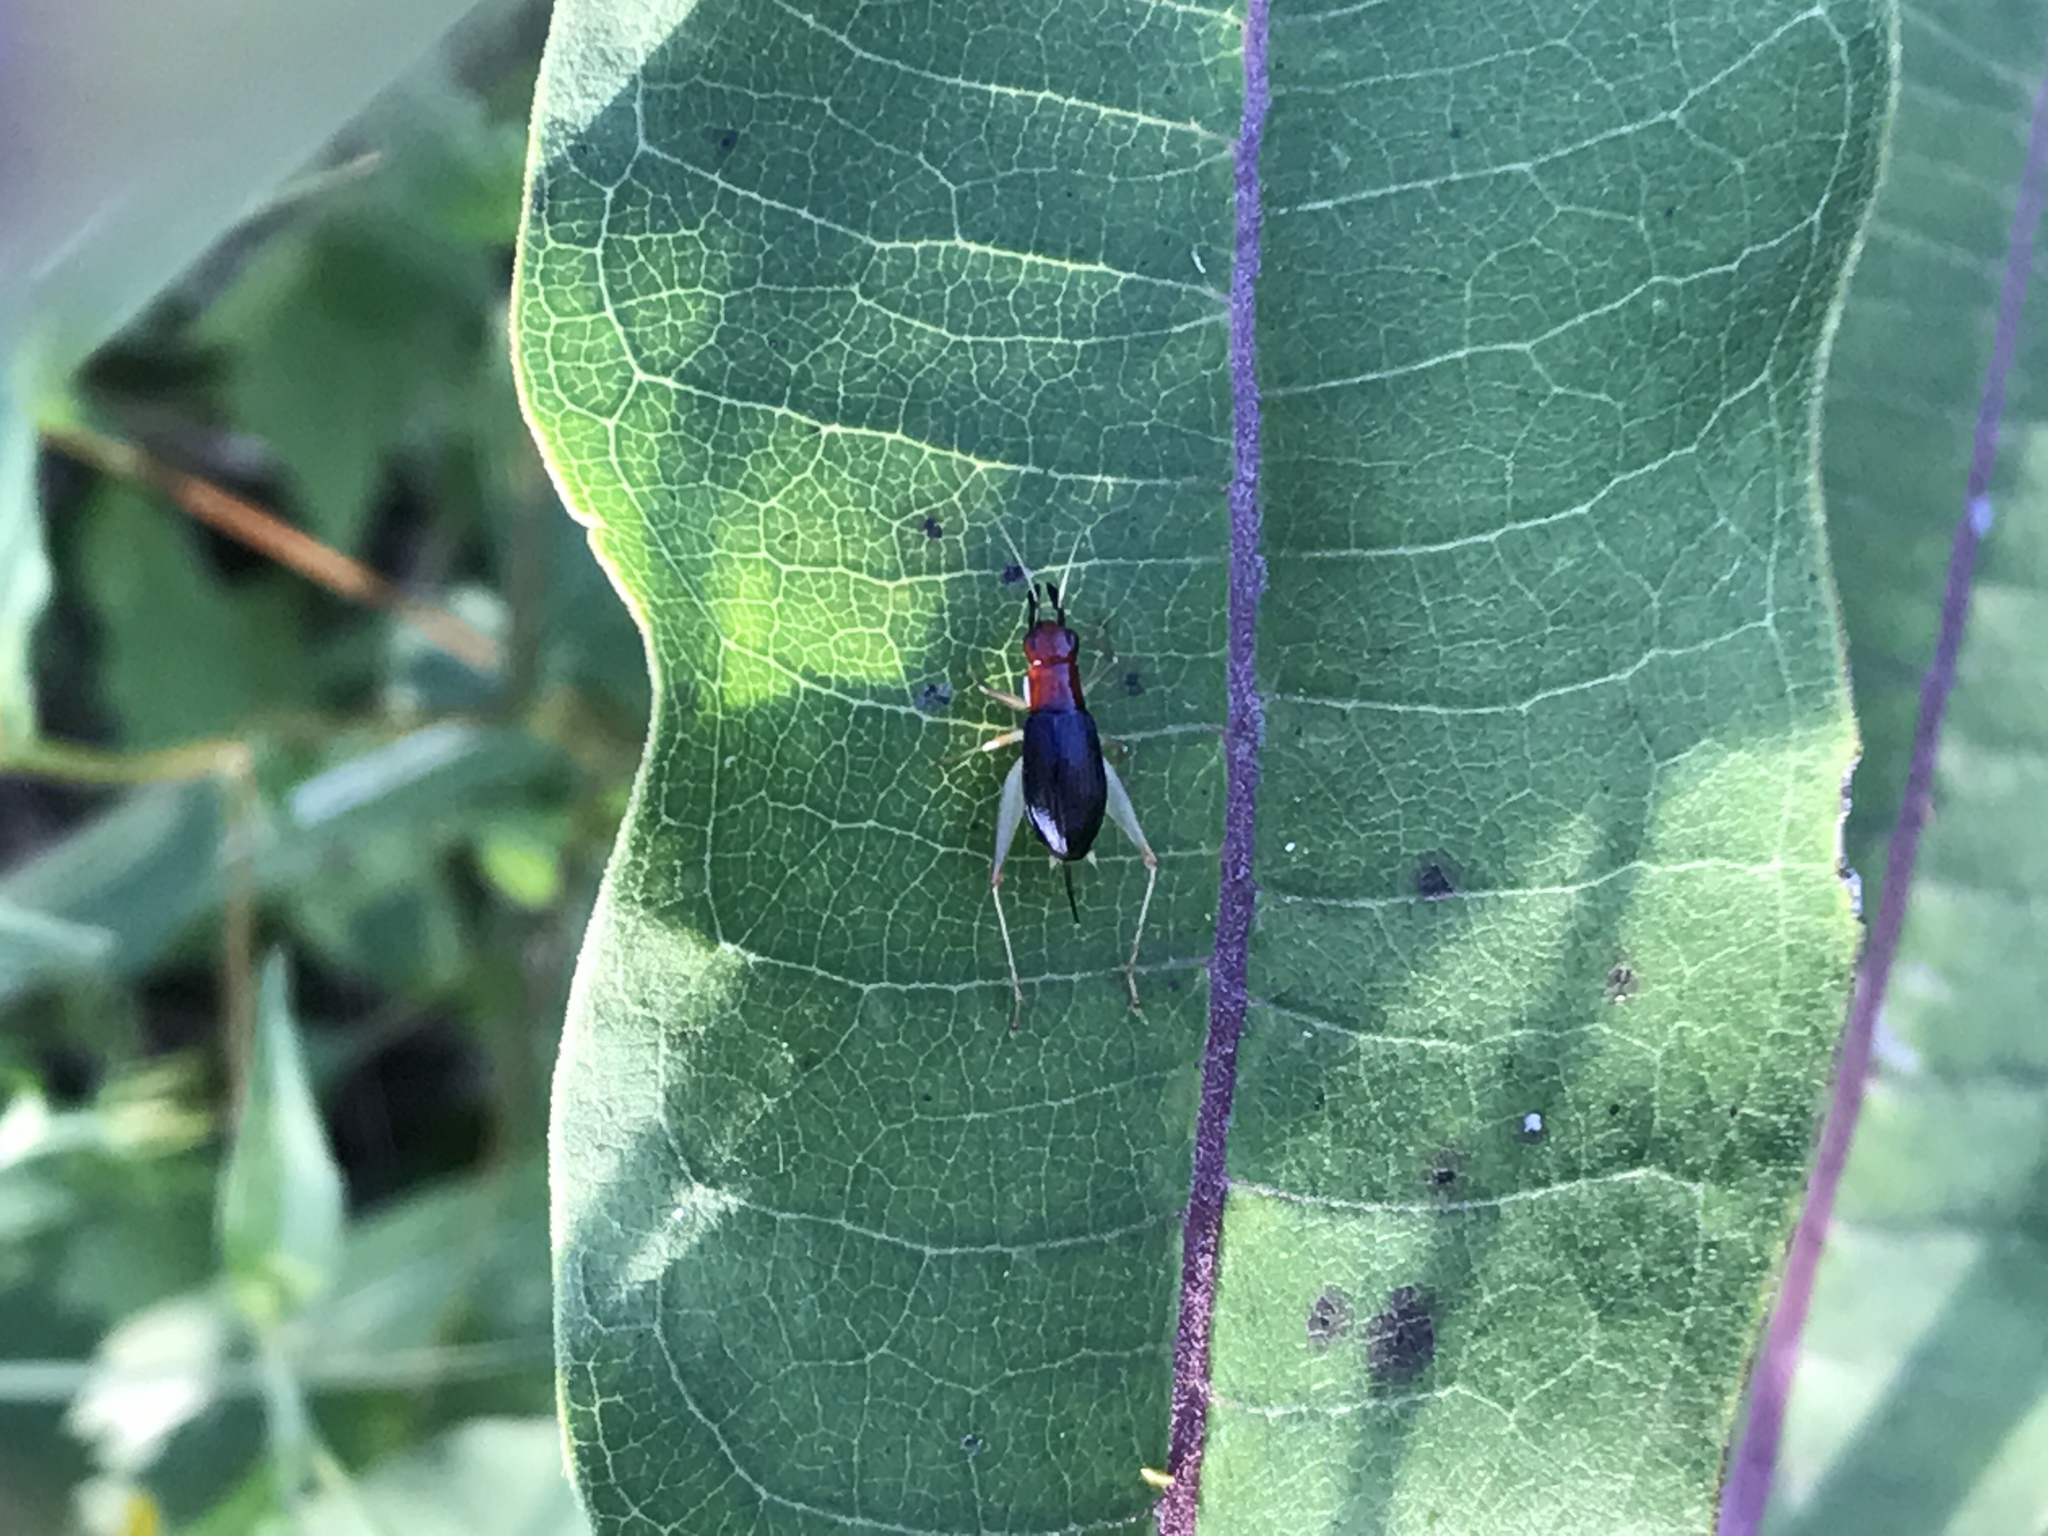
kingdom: Animalia
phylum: Arthropoda
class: Insecta
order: Orthoptera
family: Trigonidiidae
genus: Phyllopalpus
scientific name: Phyllopalpus pulchellus
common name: Handsome trig
